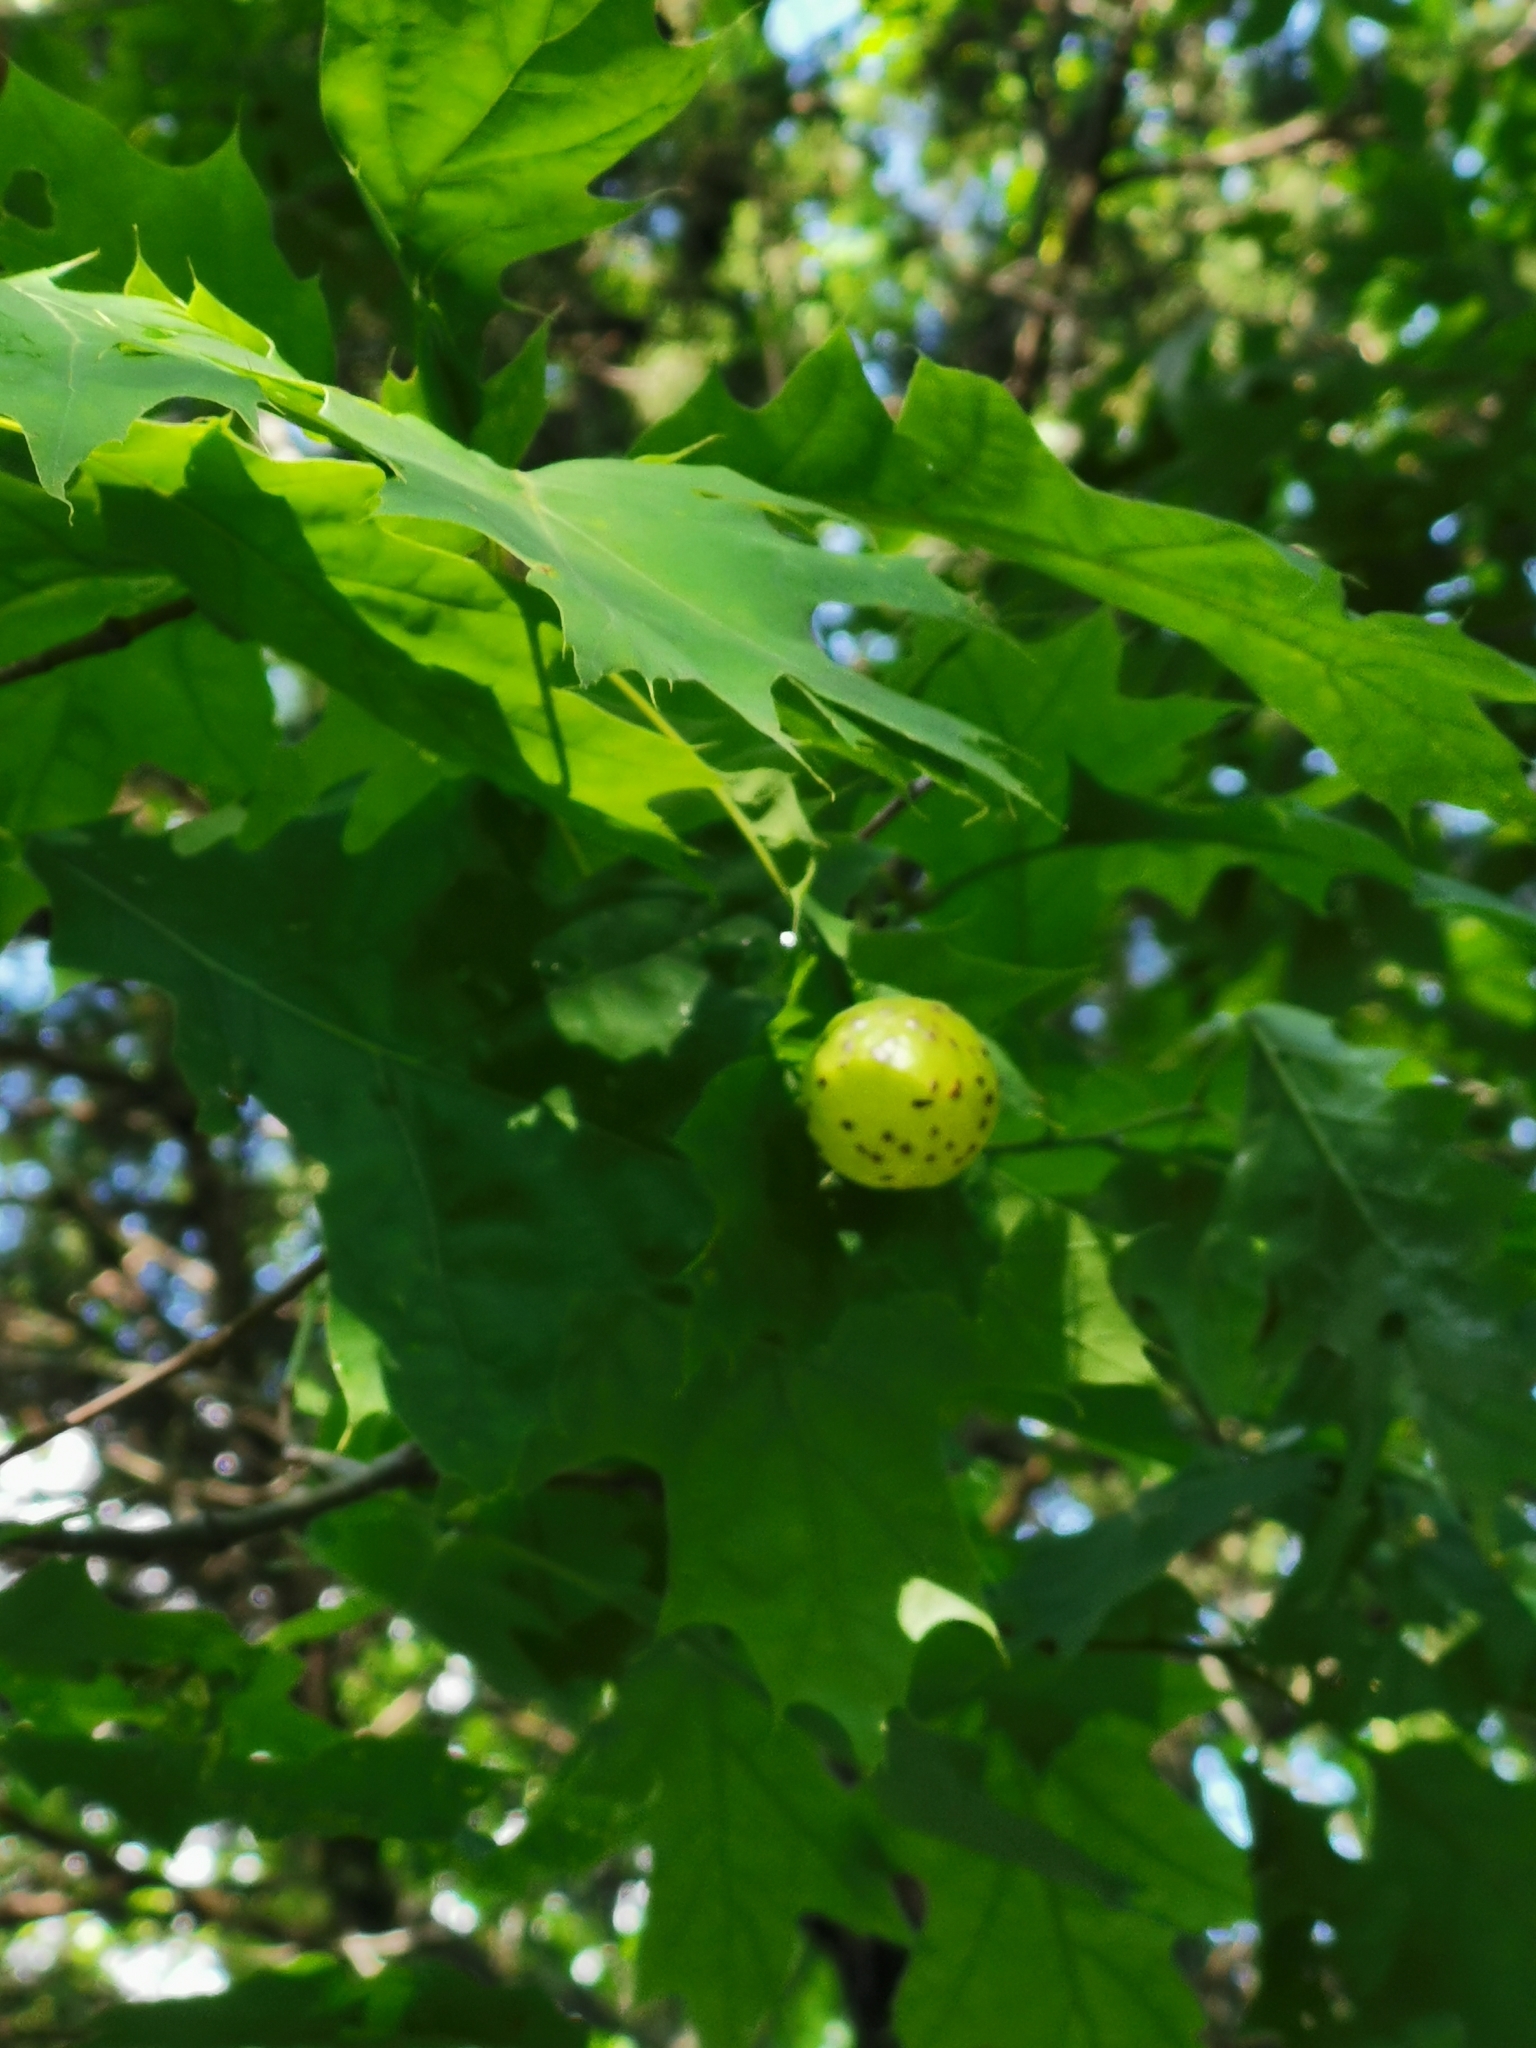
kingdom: Animalia
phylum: Arthropoda
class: Insecta
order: Hymenoptera
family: Cynipidae
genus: Amphibolips
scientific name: Amphibolips
